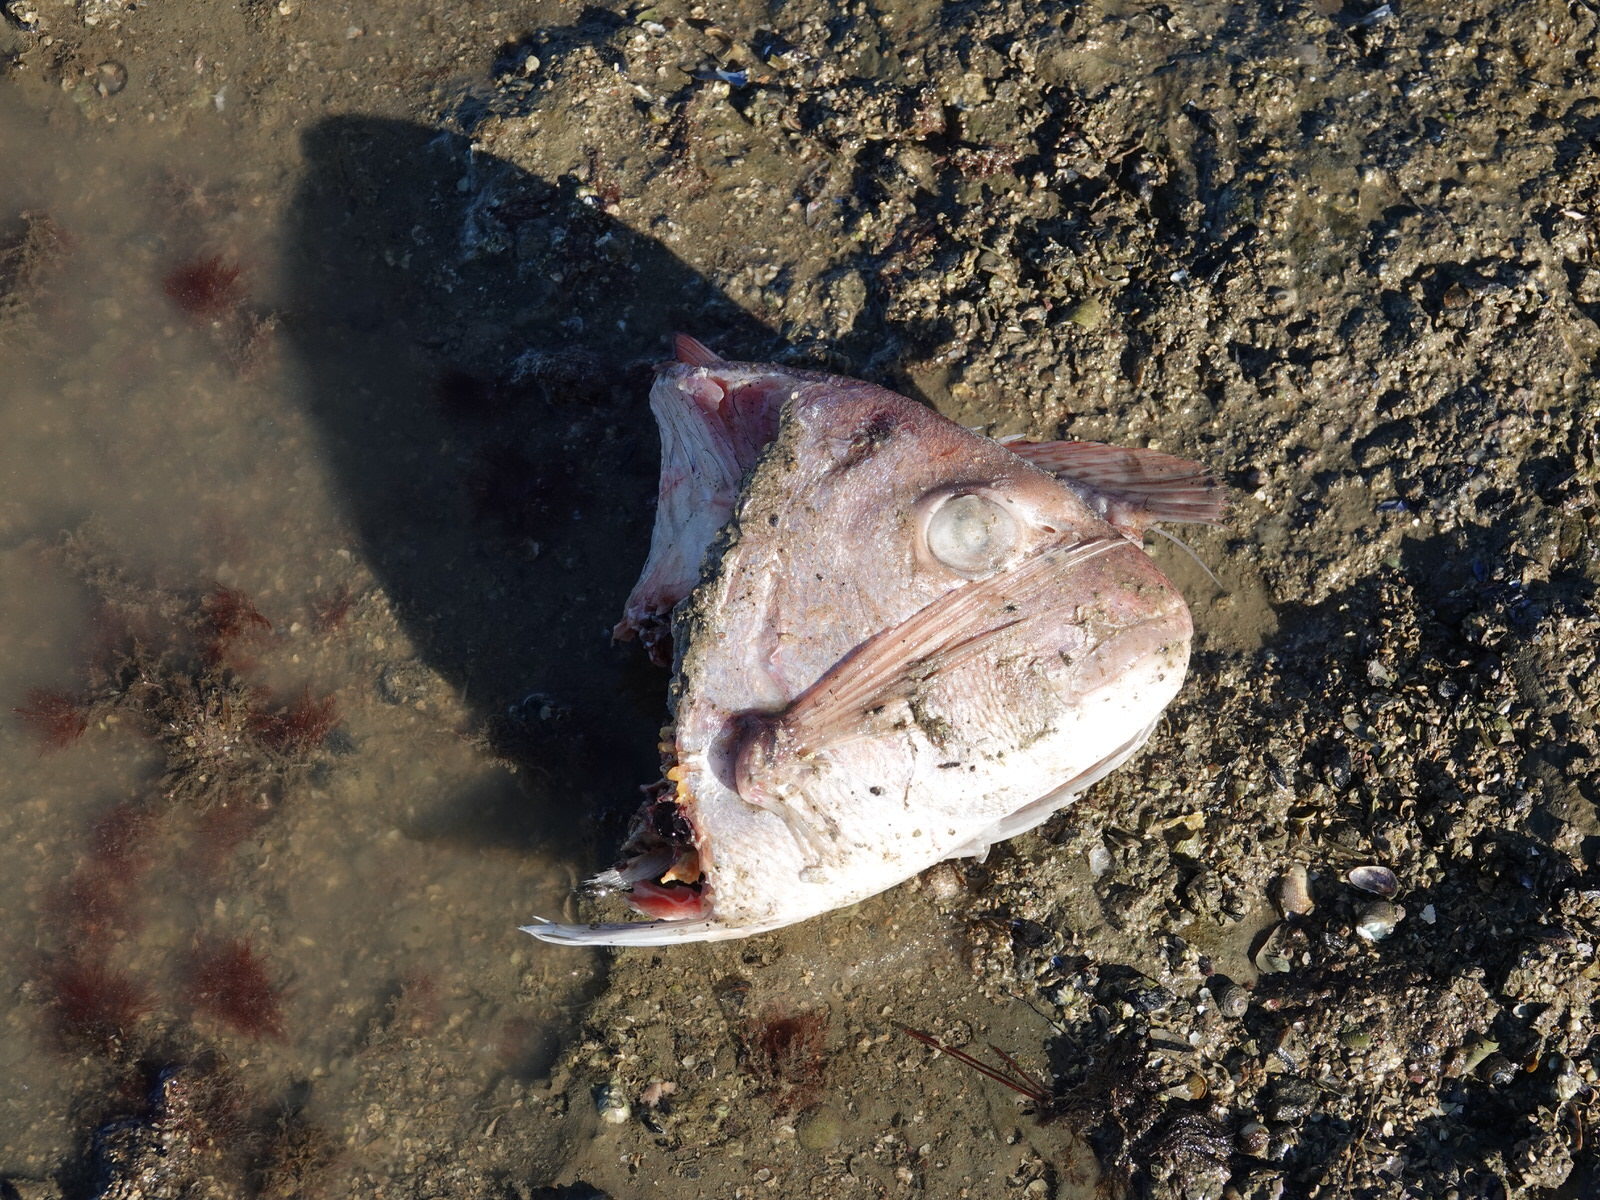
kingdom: Animalia
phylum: Chordata
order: Perciformes
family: Sparidae
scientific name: Sparidae
